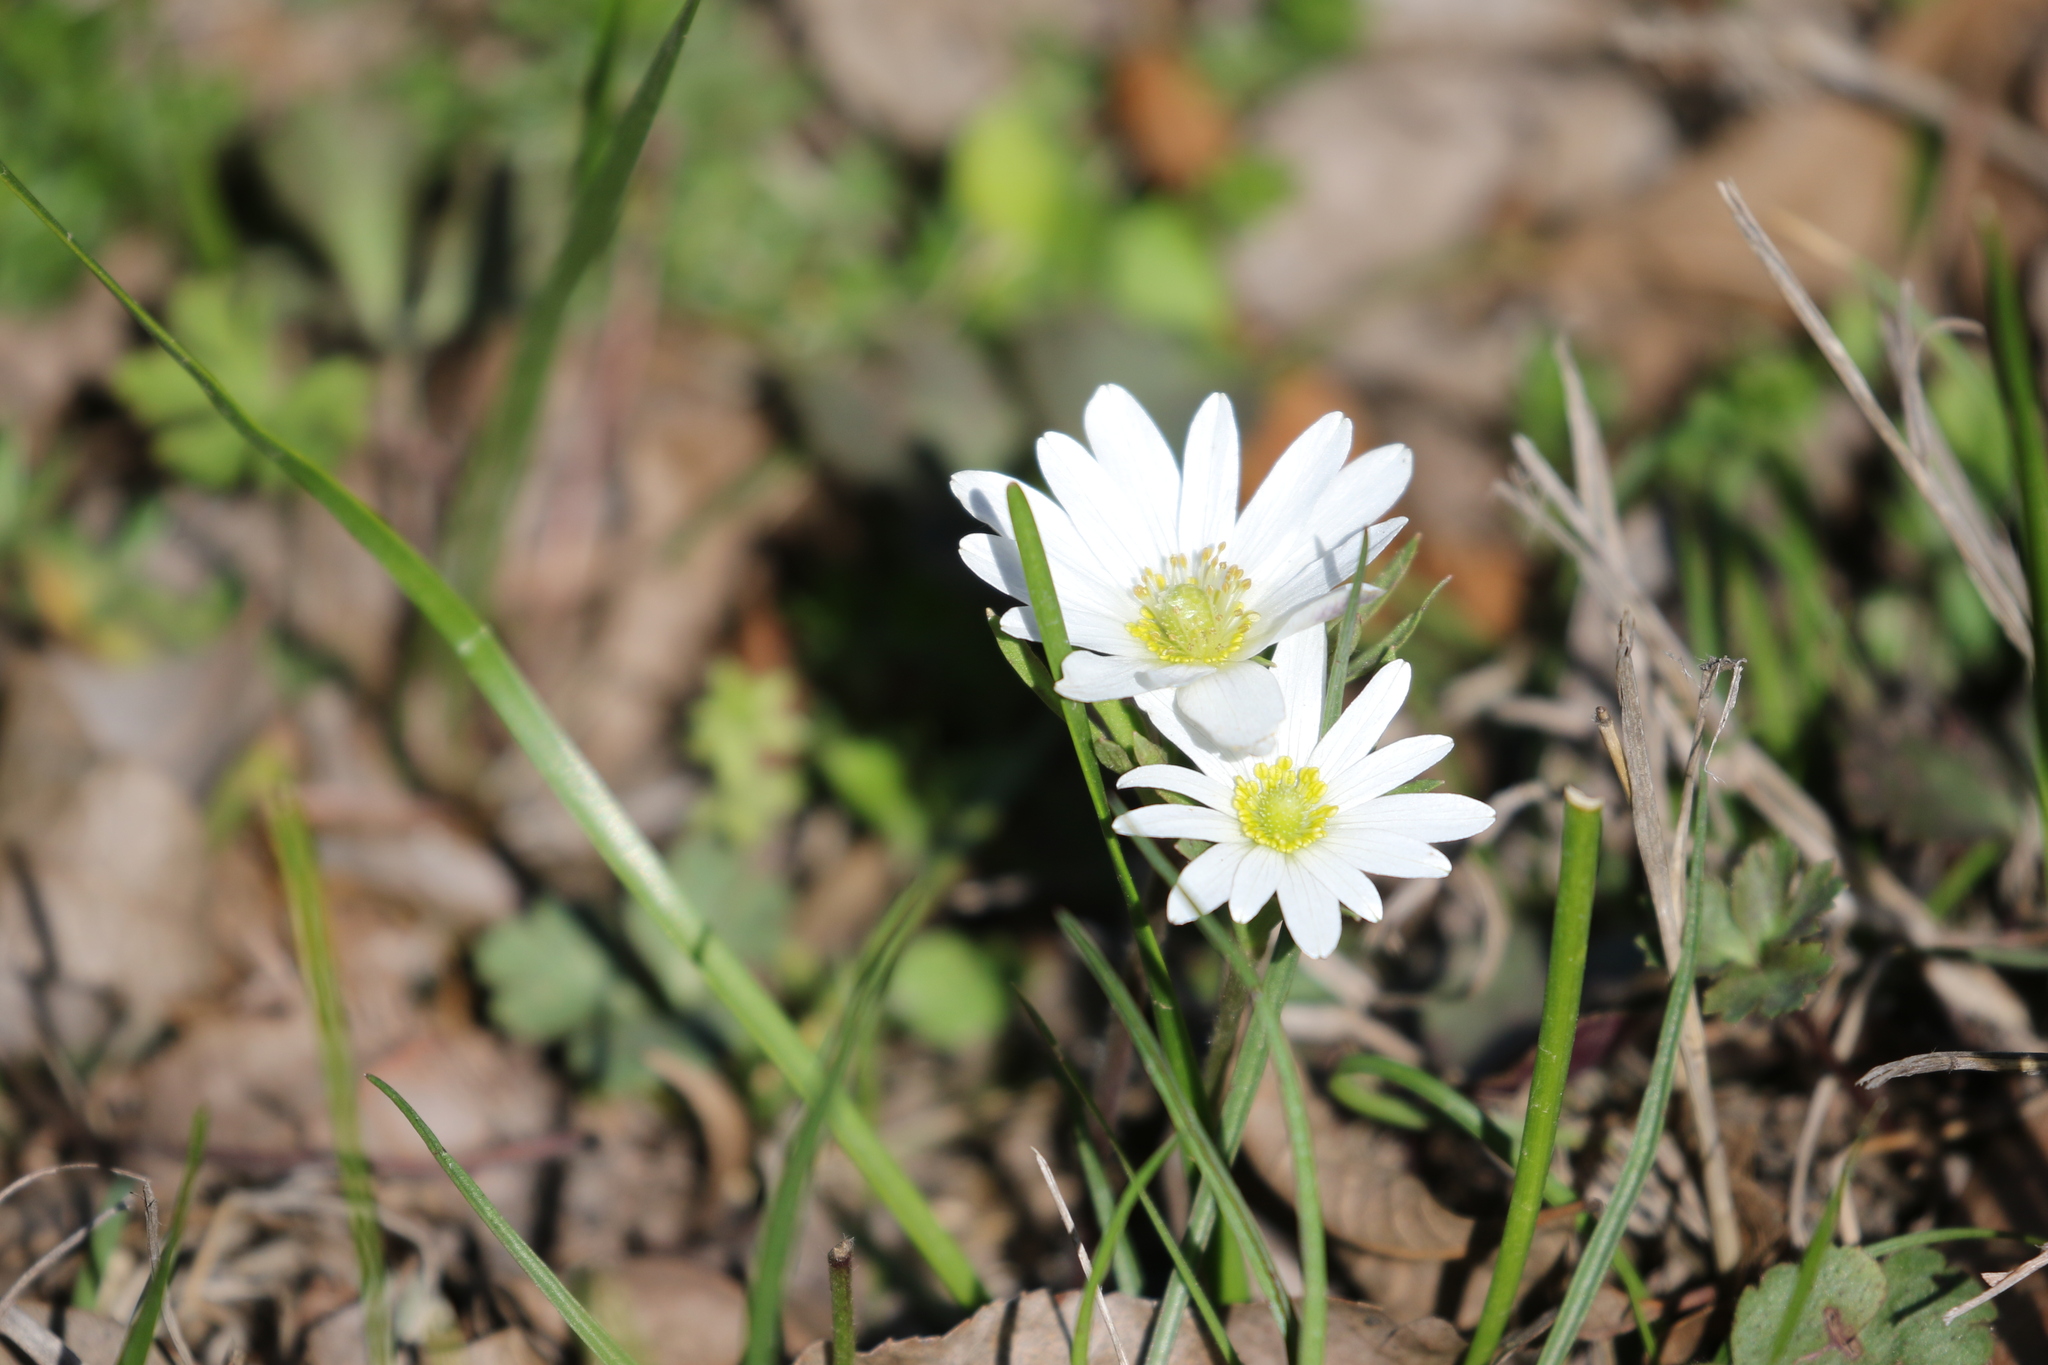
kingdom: Plantae
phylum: Tracheophyta
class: Magnoliopsida
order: Ranunculales
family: Ranunculaceae
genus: Anemone
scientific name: Anemone berlandieri
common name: Ten-petal anemone
